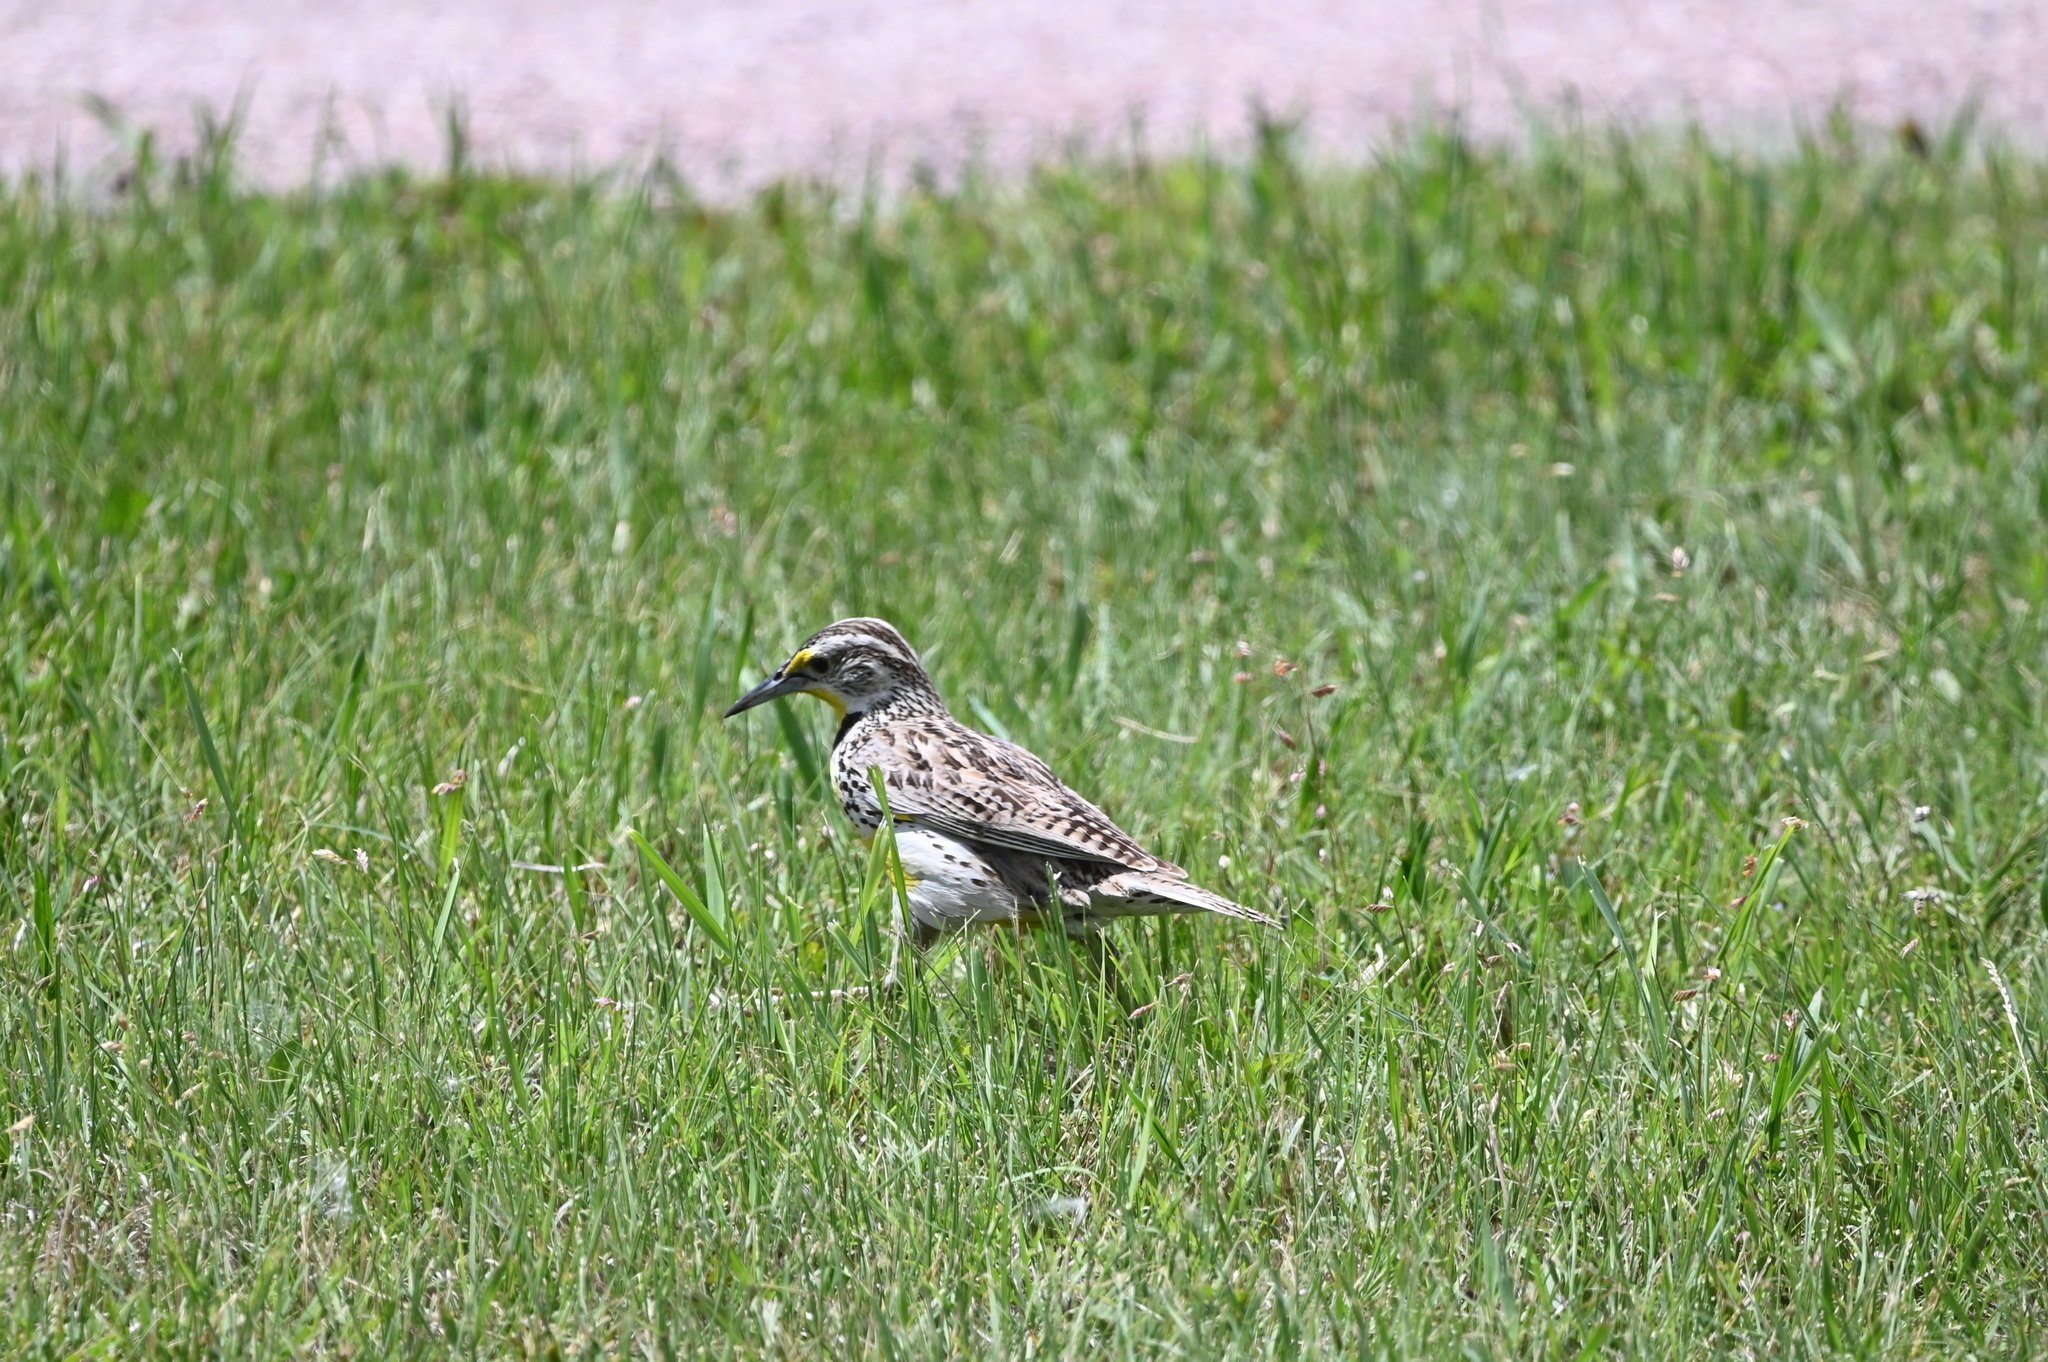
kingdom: Animalia
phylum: Chordata
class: Aves
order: Passeriformes
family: Icteridae
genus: Sturnella
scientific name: Sturnella neglecta
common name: Western meadowlark
